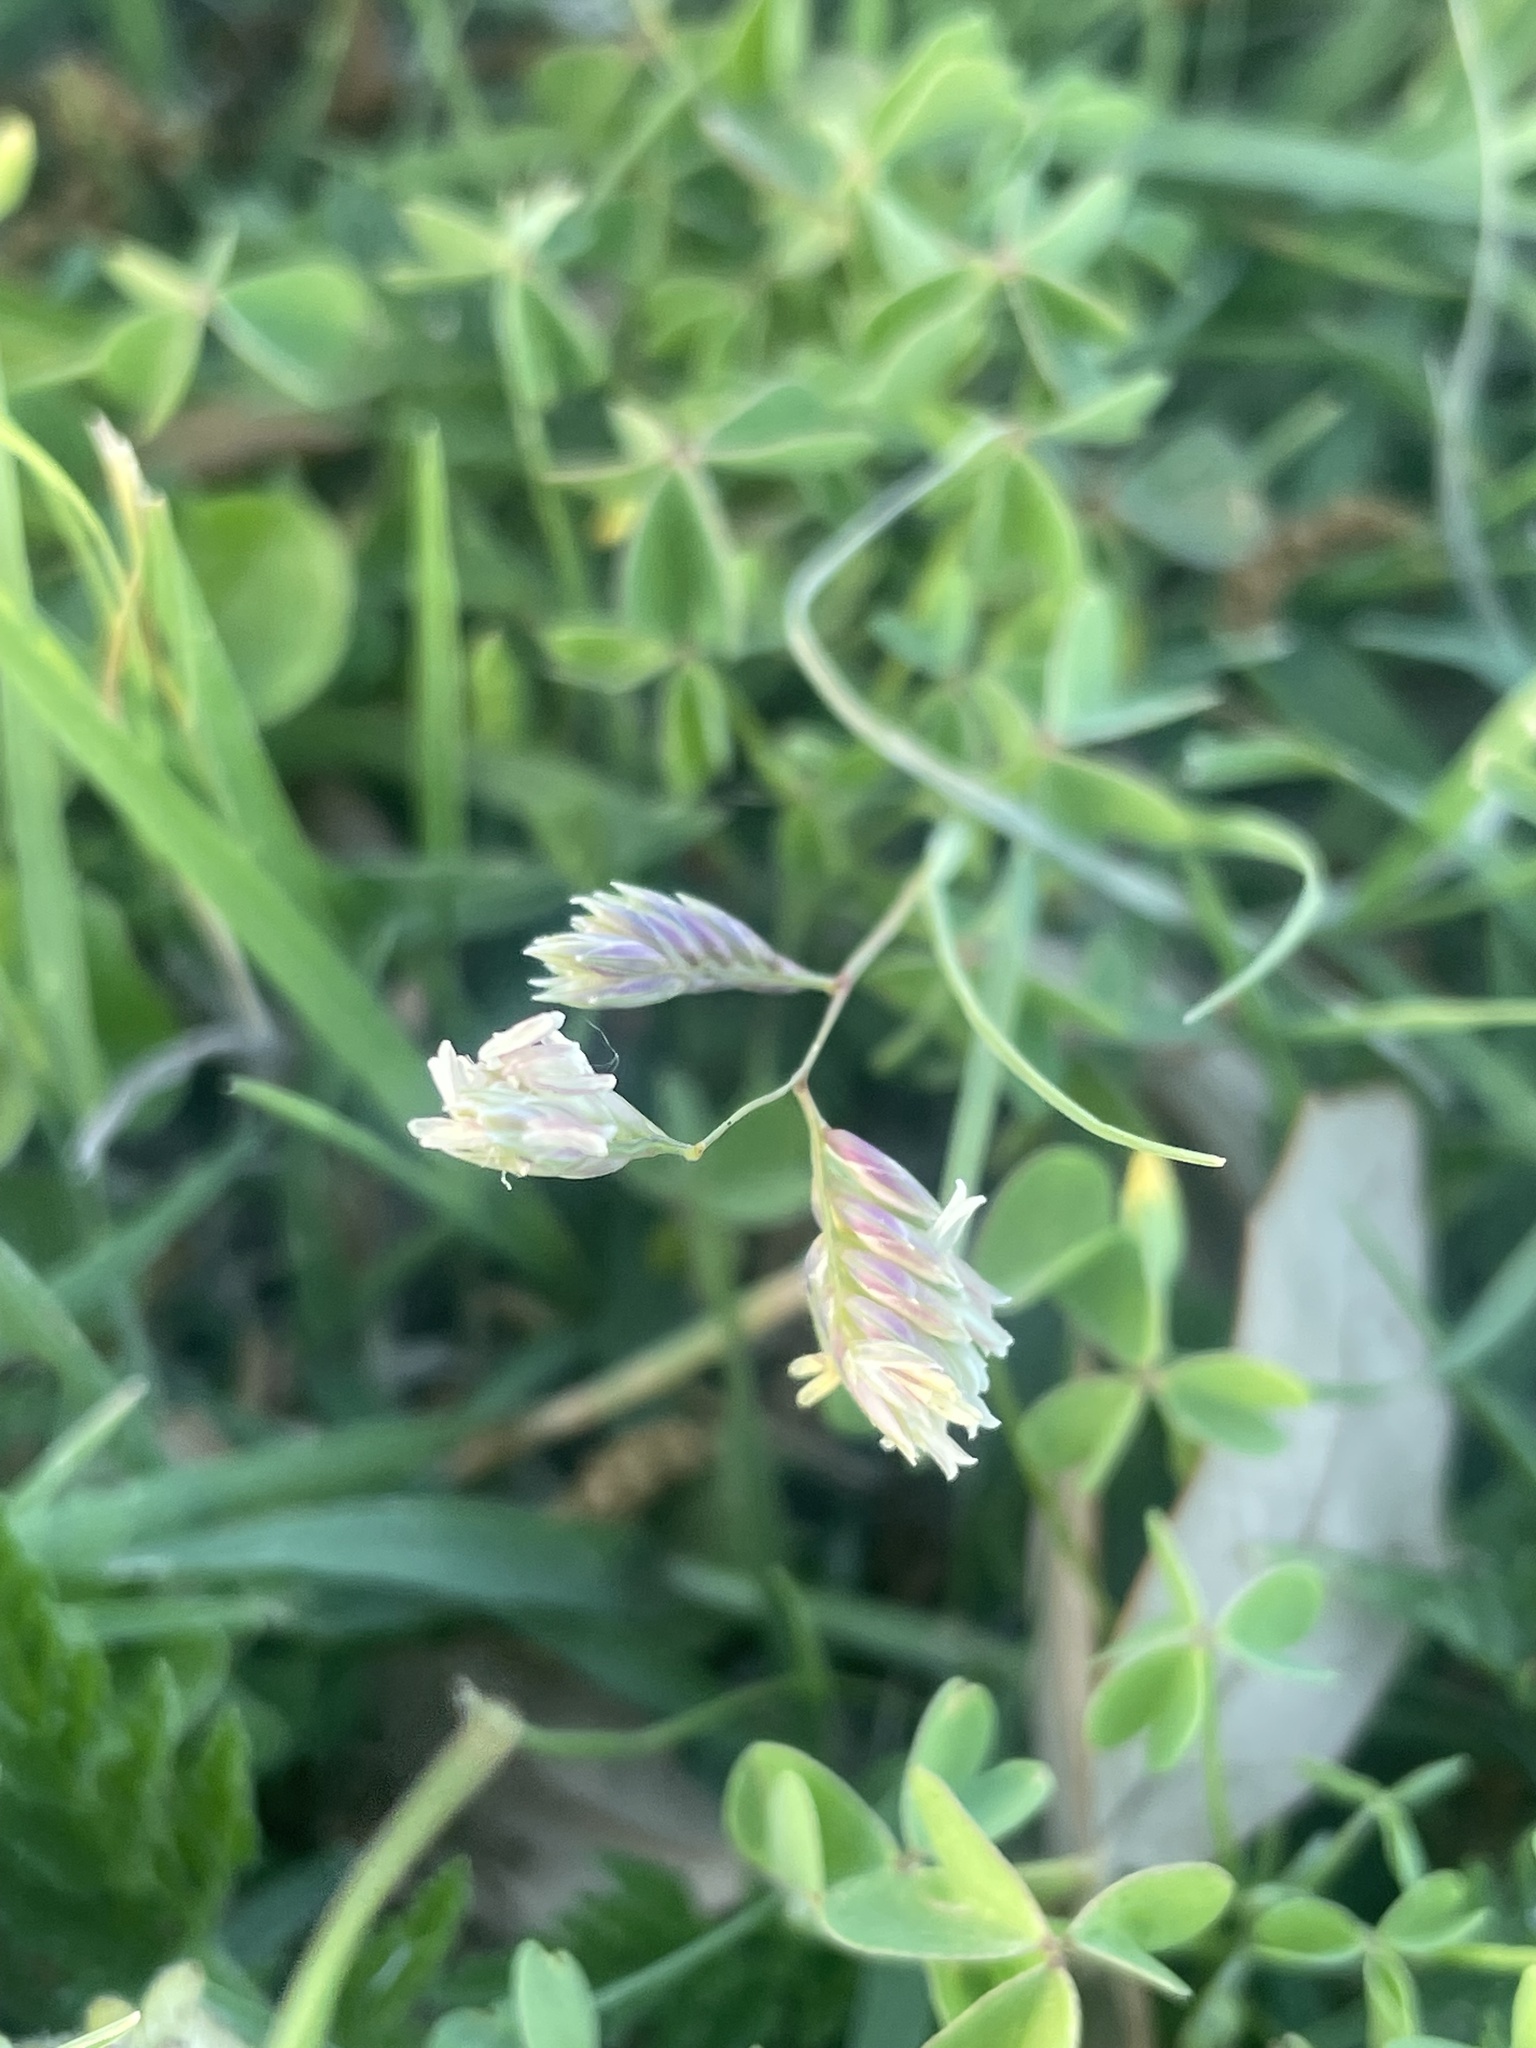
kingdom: Plantae
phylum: Tracheophyta
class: Liliopsida
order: Poales
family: Poaceae
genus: Bouteloua
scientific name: Bouteloua dactyloides
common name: Buffalo grass
